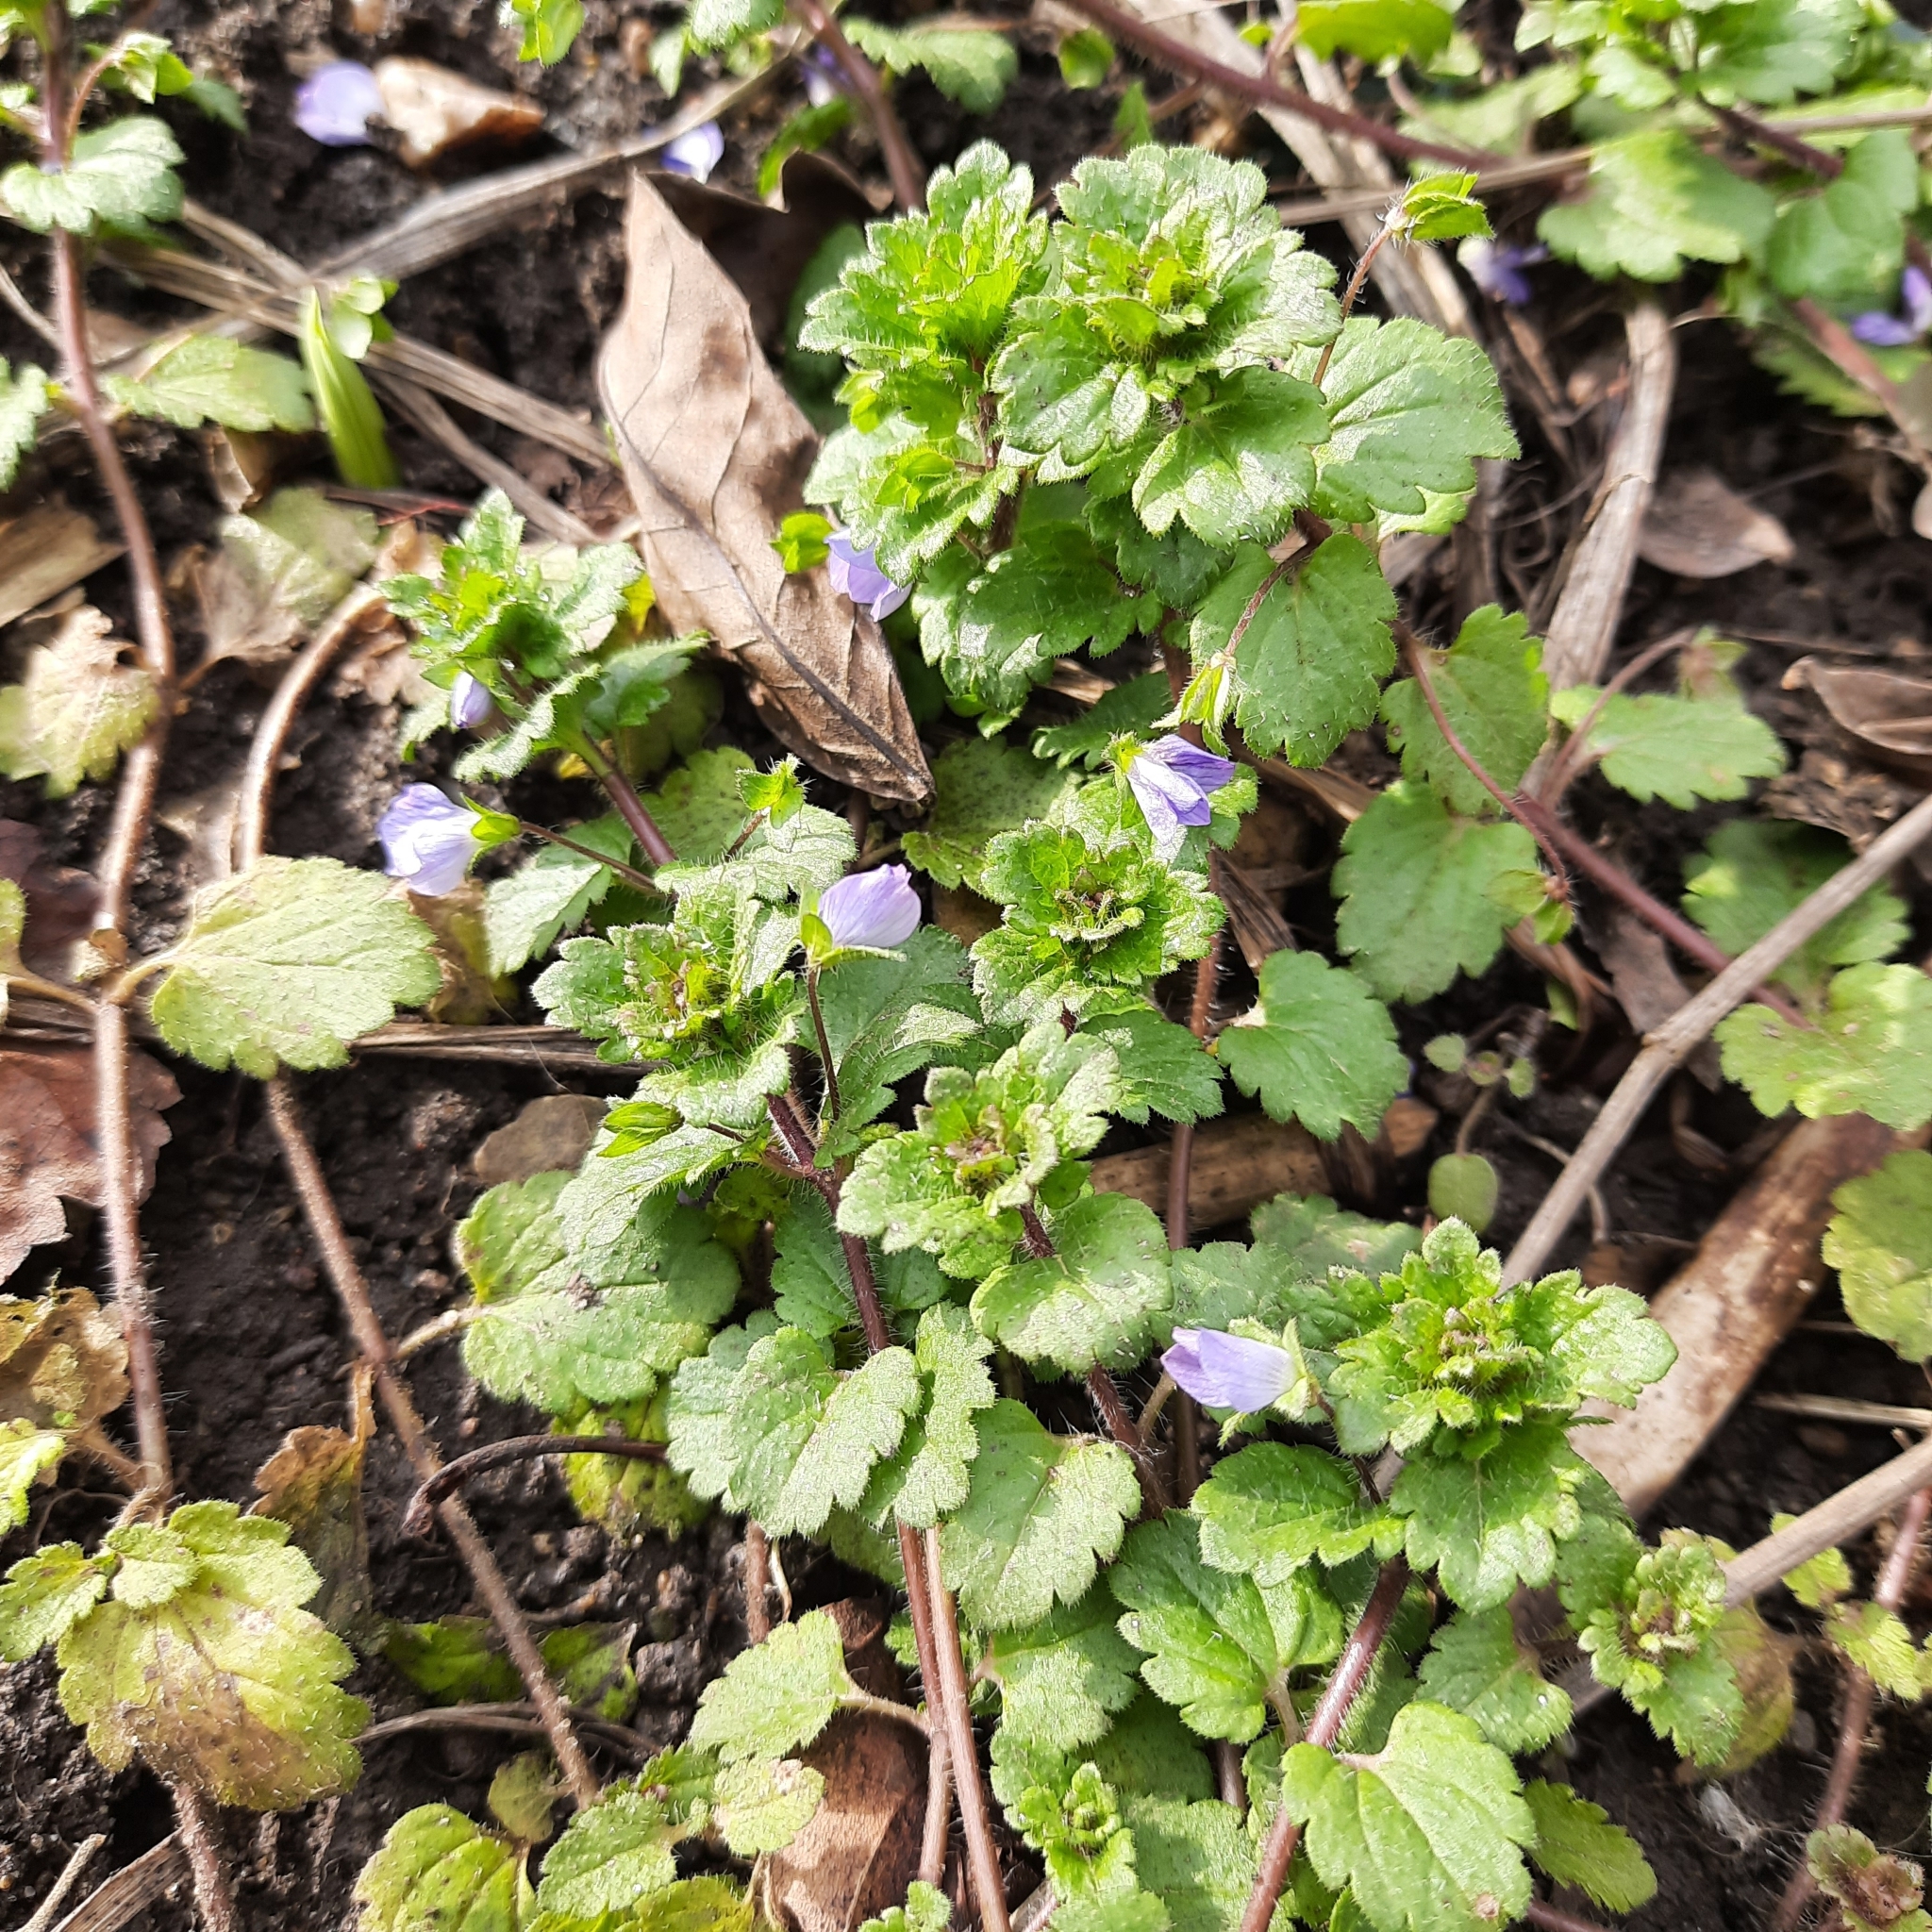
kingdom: Plantae
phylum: Tracheophyta
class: Magnoliopsida
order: Lamiales
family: Plantaginaceae
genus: Veronica
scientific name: Veronica persica
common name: Common field-speedwell
